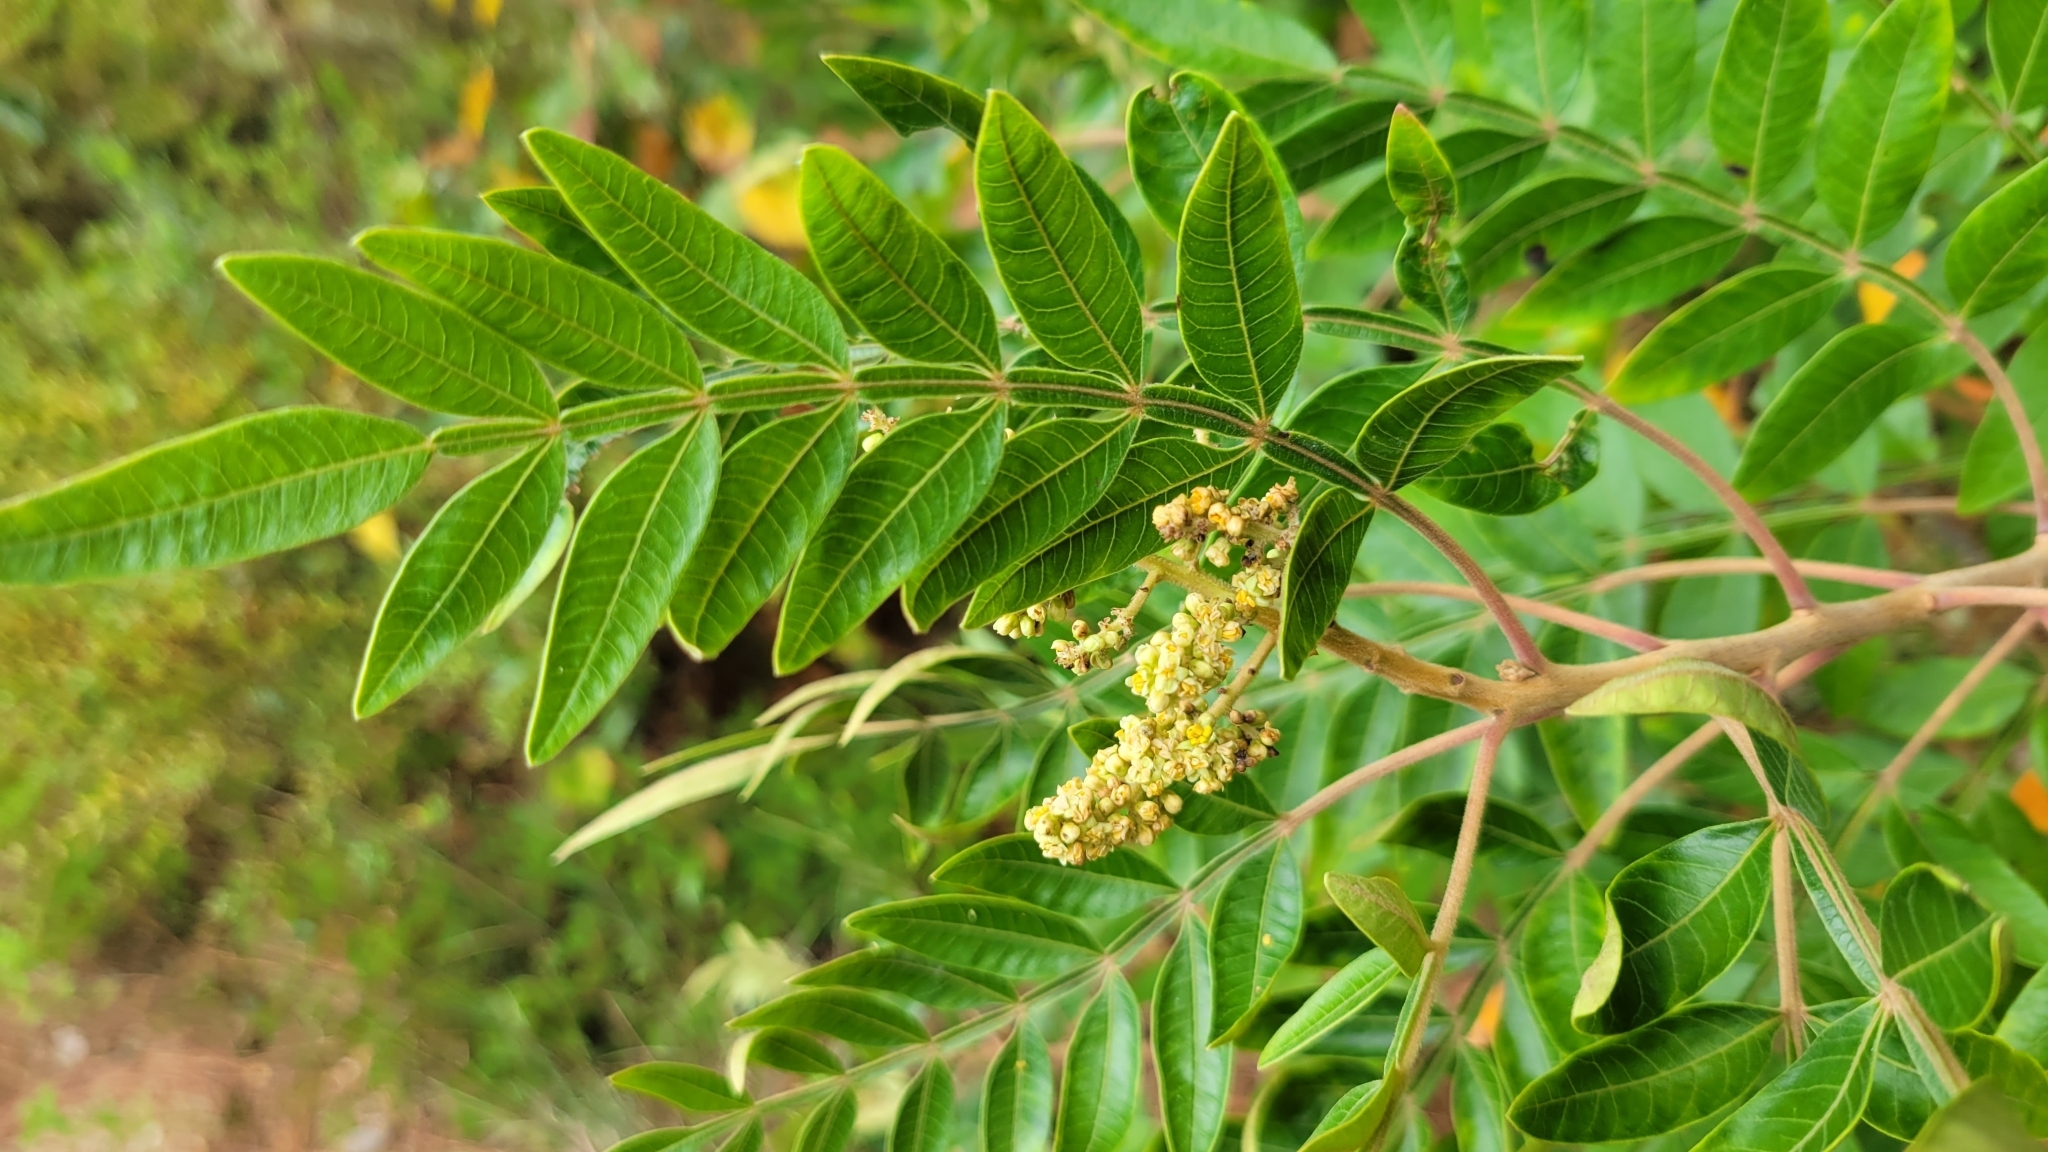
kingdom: Plantae
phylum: Tracheophyta
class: Magnoliopsida
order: Sapindales
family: Anacardiaceae
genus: Rhus
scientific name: Rhus copallina
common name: Shining sumac
